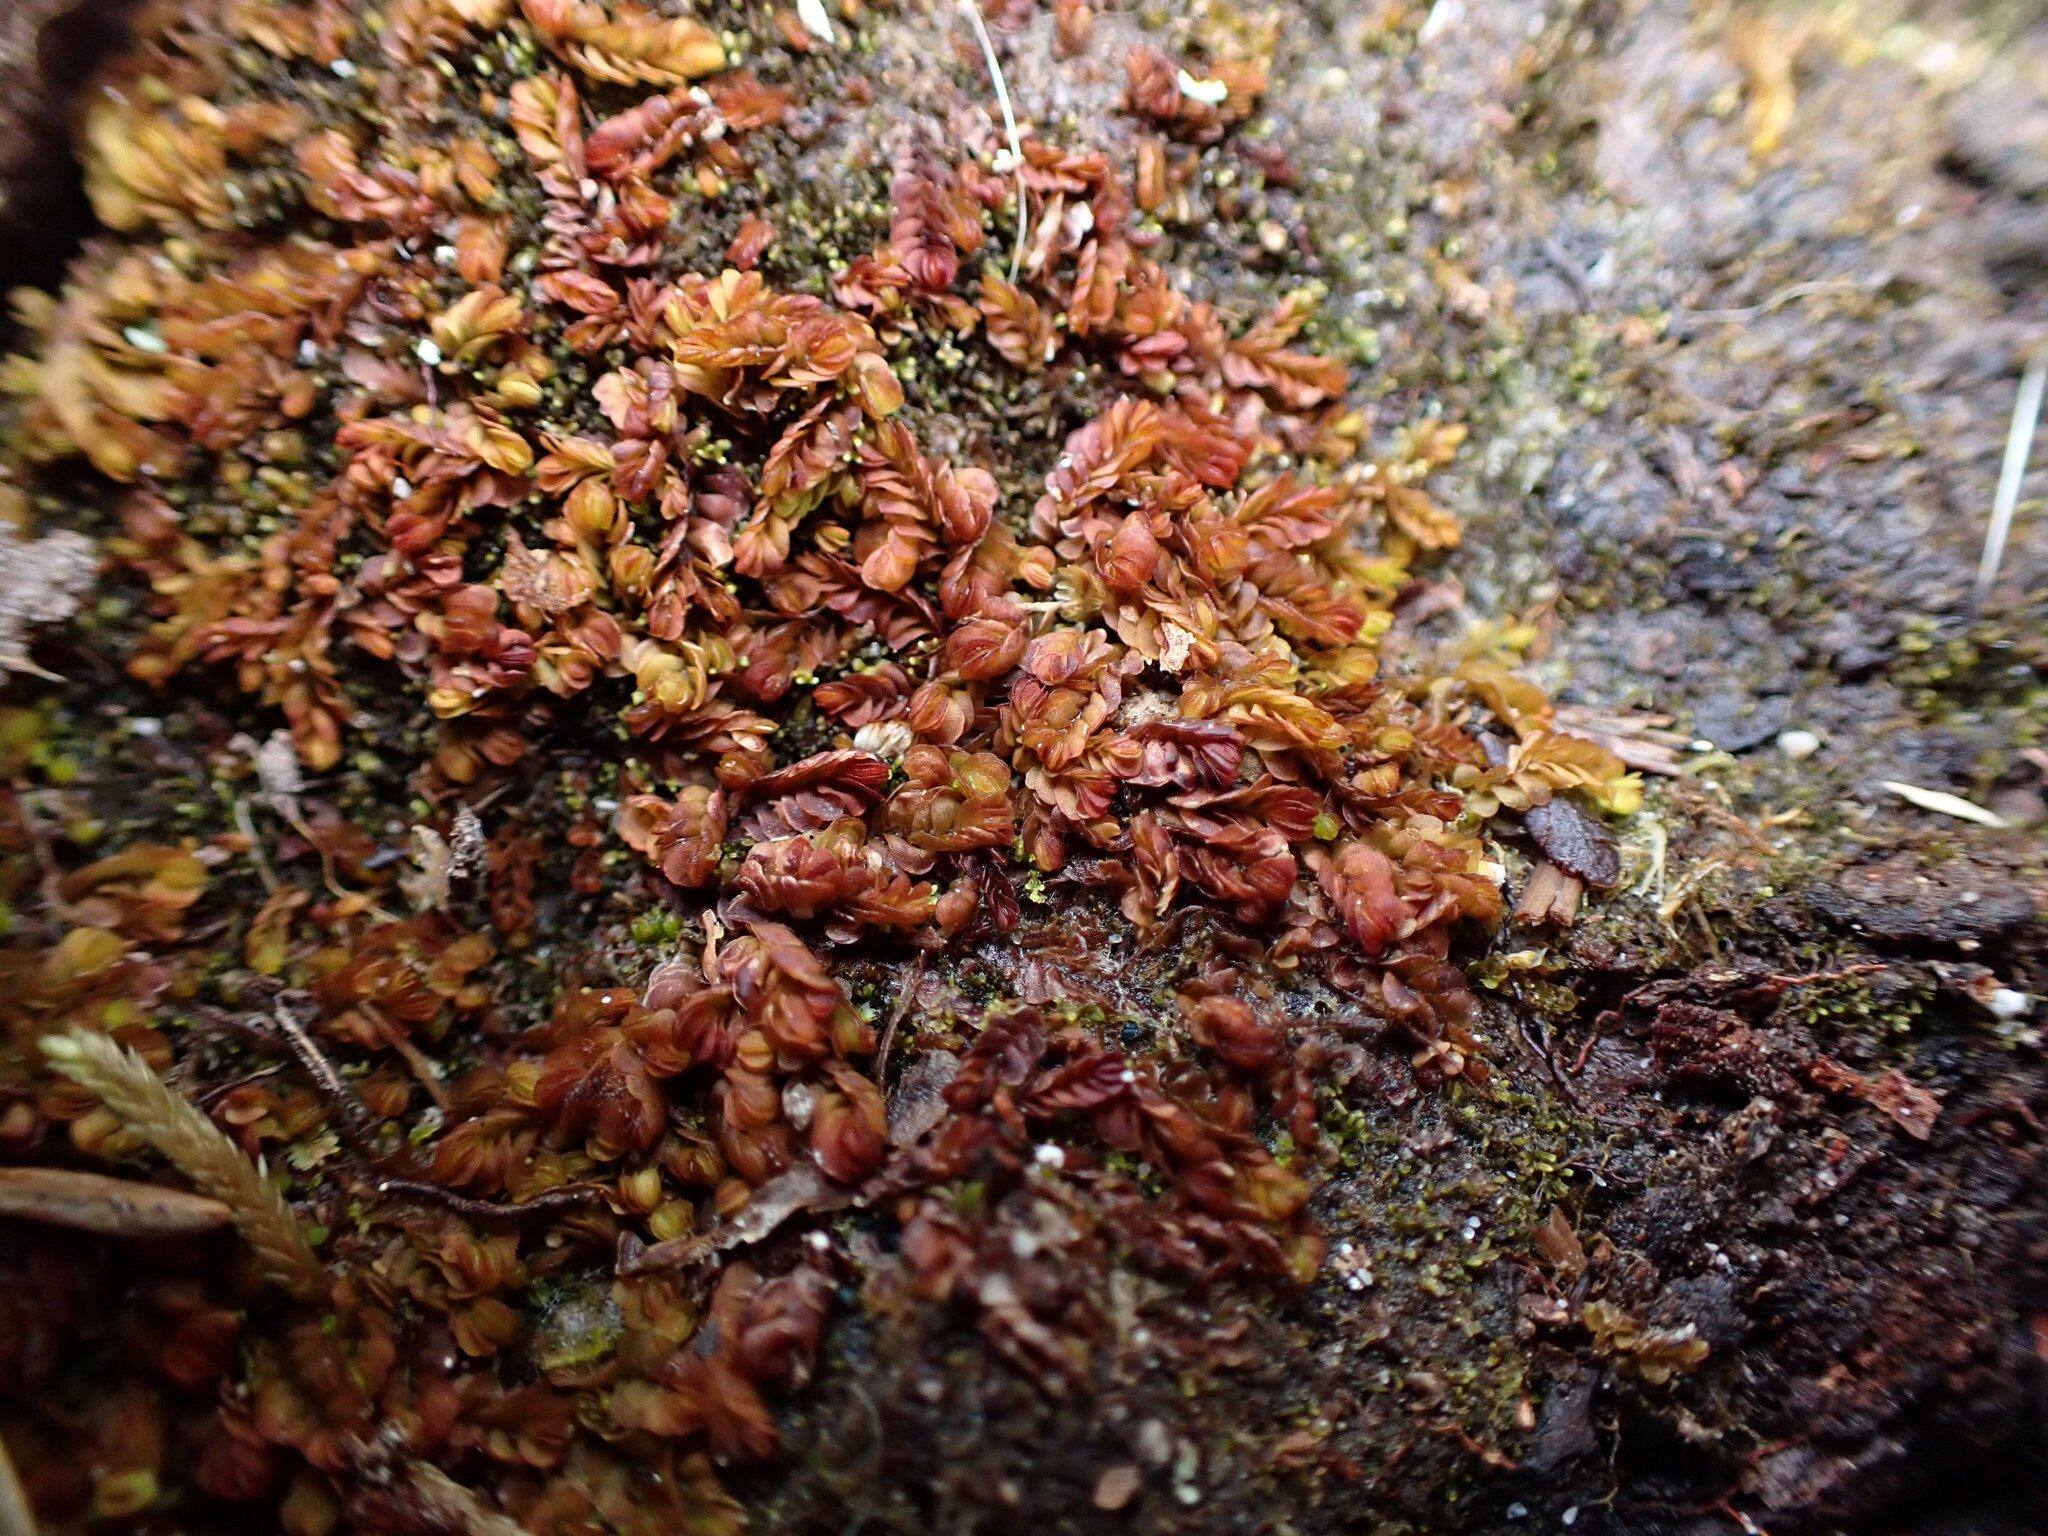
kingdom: Plantae
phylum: Marchantiophyta
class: Jungermanniopsida
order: Jungermanniales
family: Myliaceae
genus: Mylia
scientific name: Mylia taylorii
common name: Taylor s flapwort
